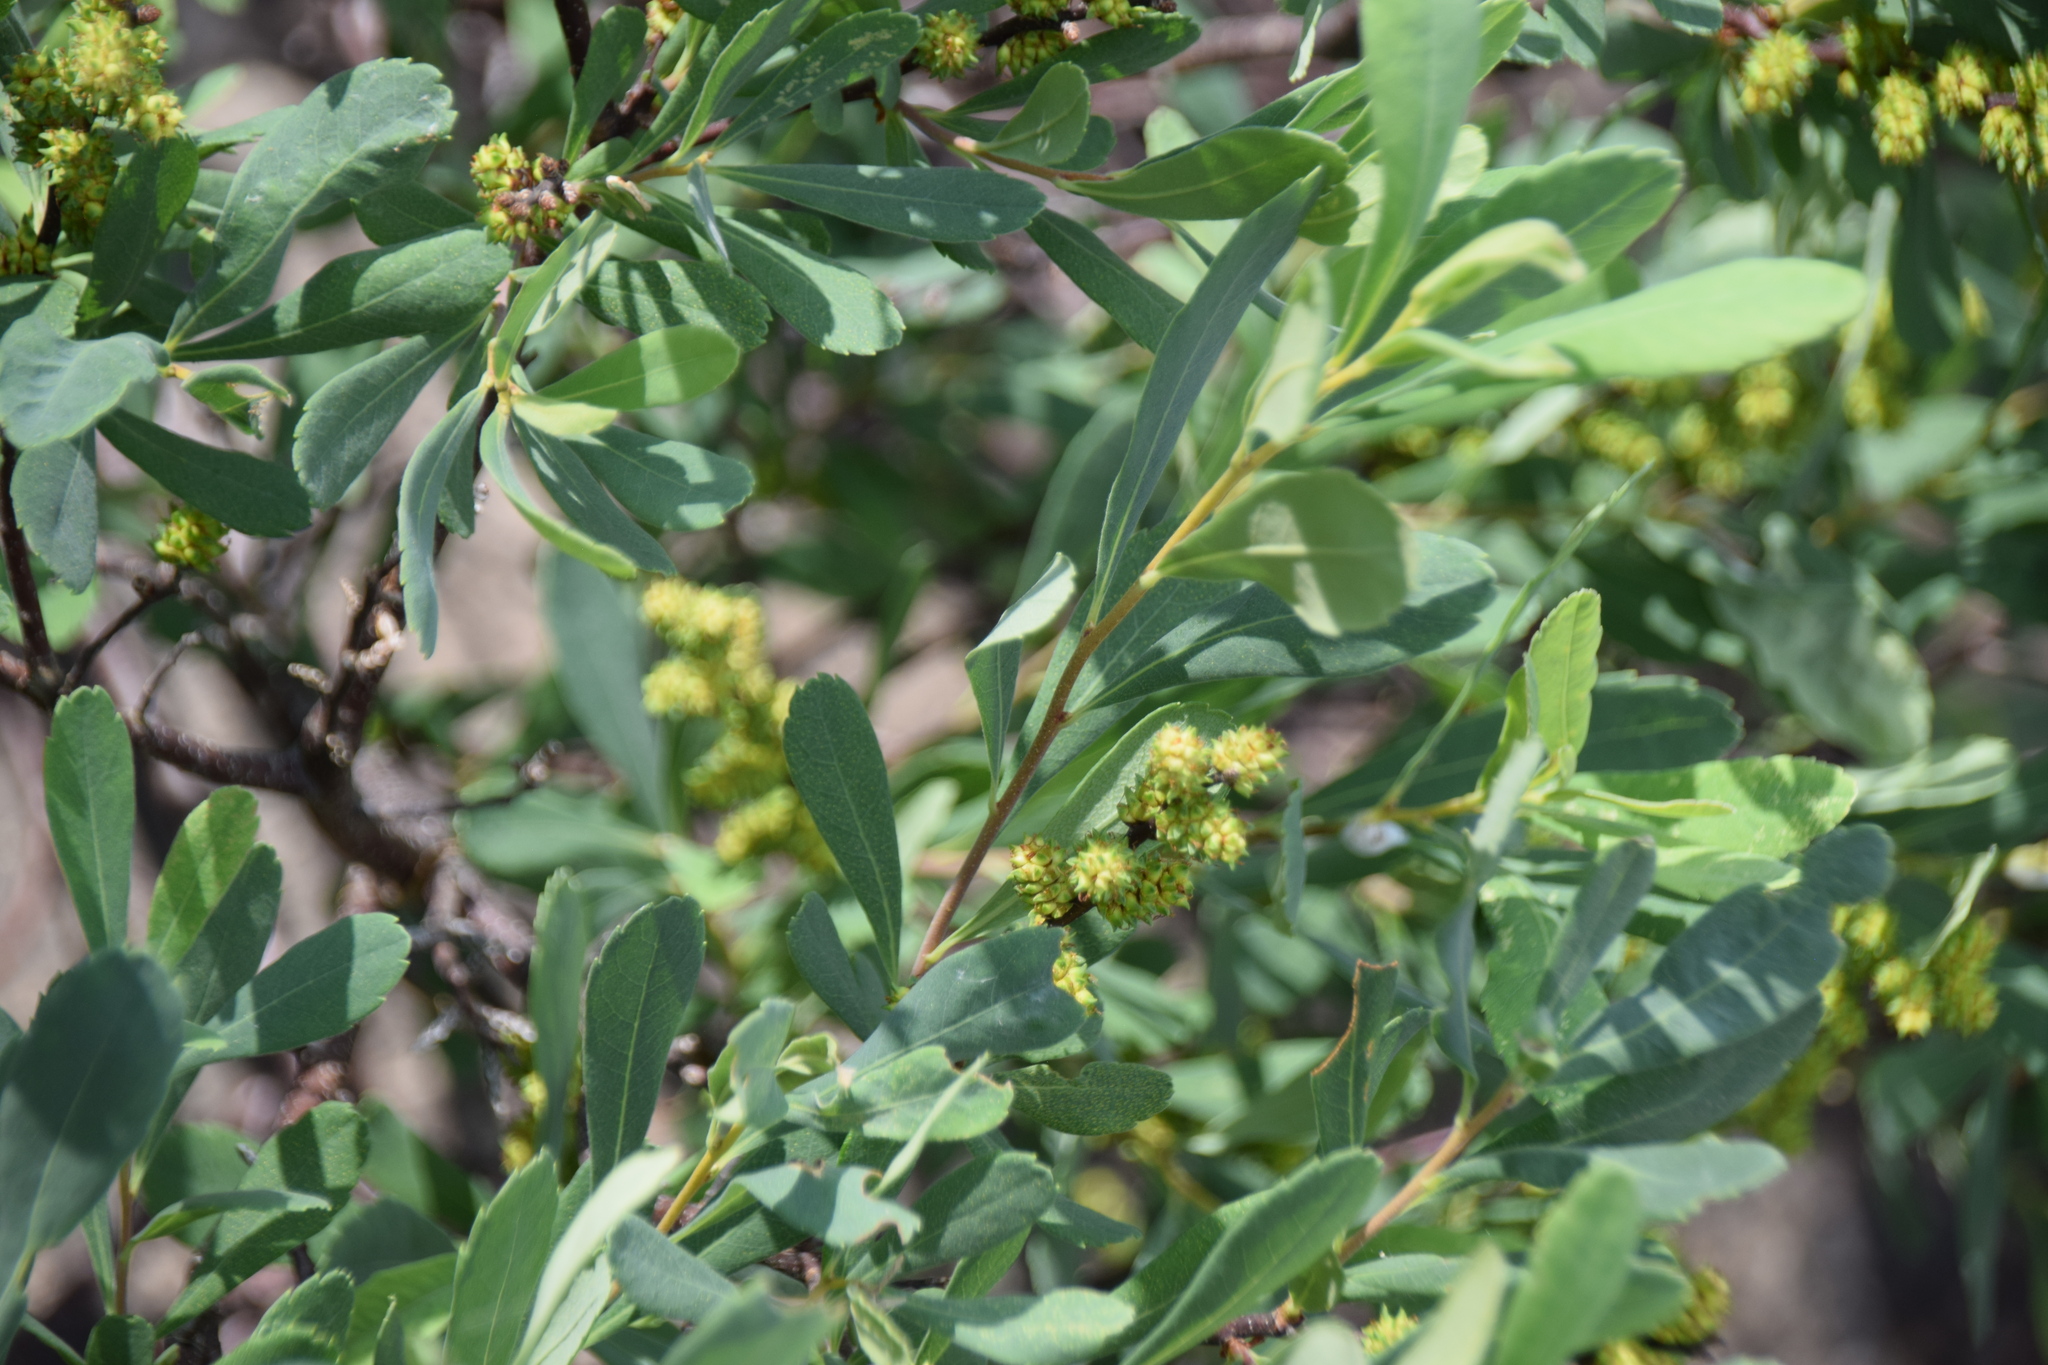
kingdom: Plantae
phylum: Tracheophyta
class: Magnoliopsida
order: Fagales
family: Myricaceae
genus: Myrica
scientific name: Myrica gale
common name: Sweet gale
